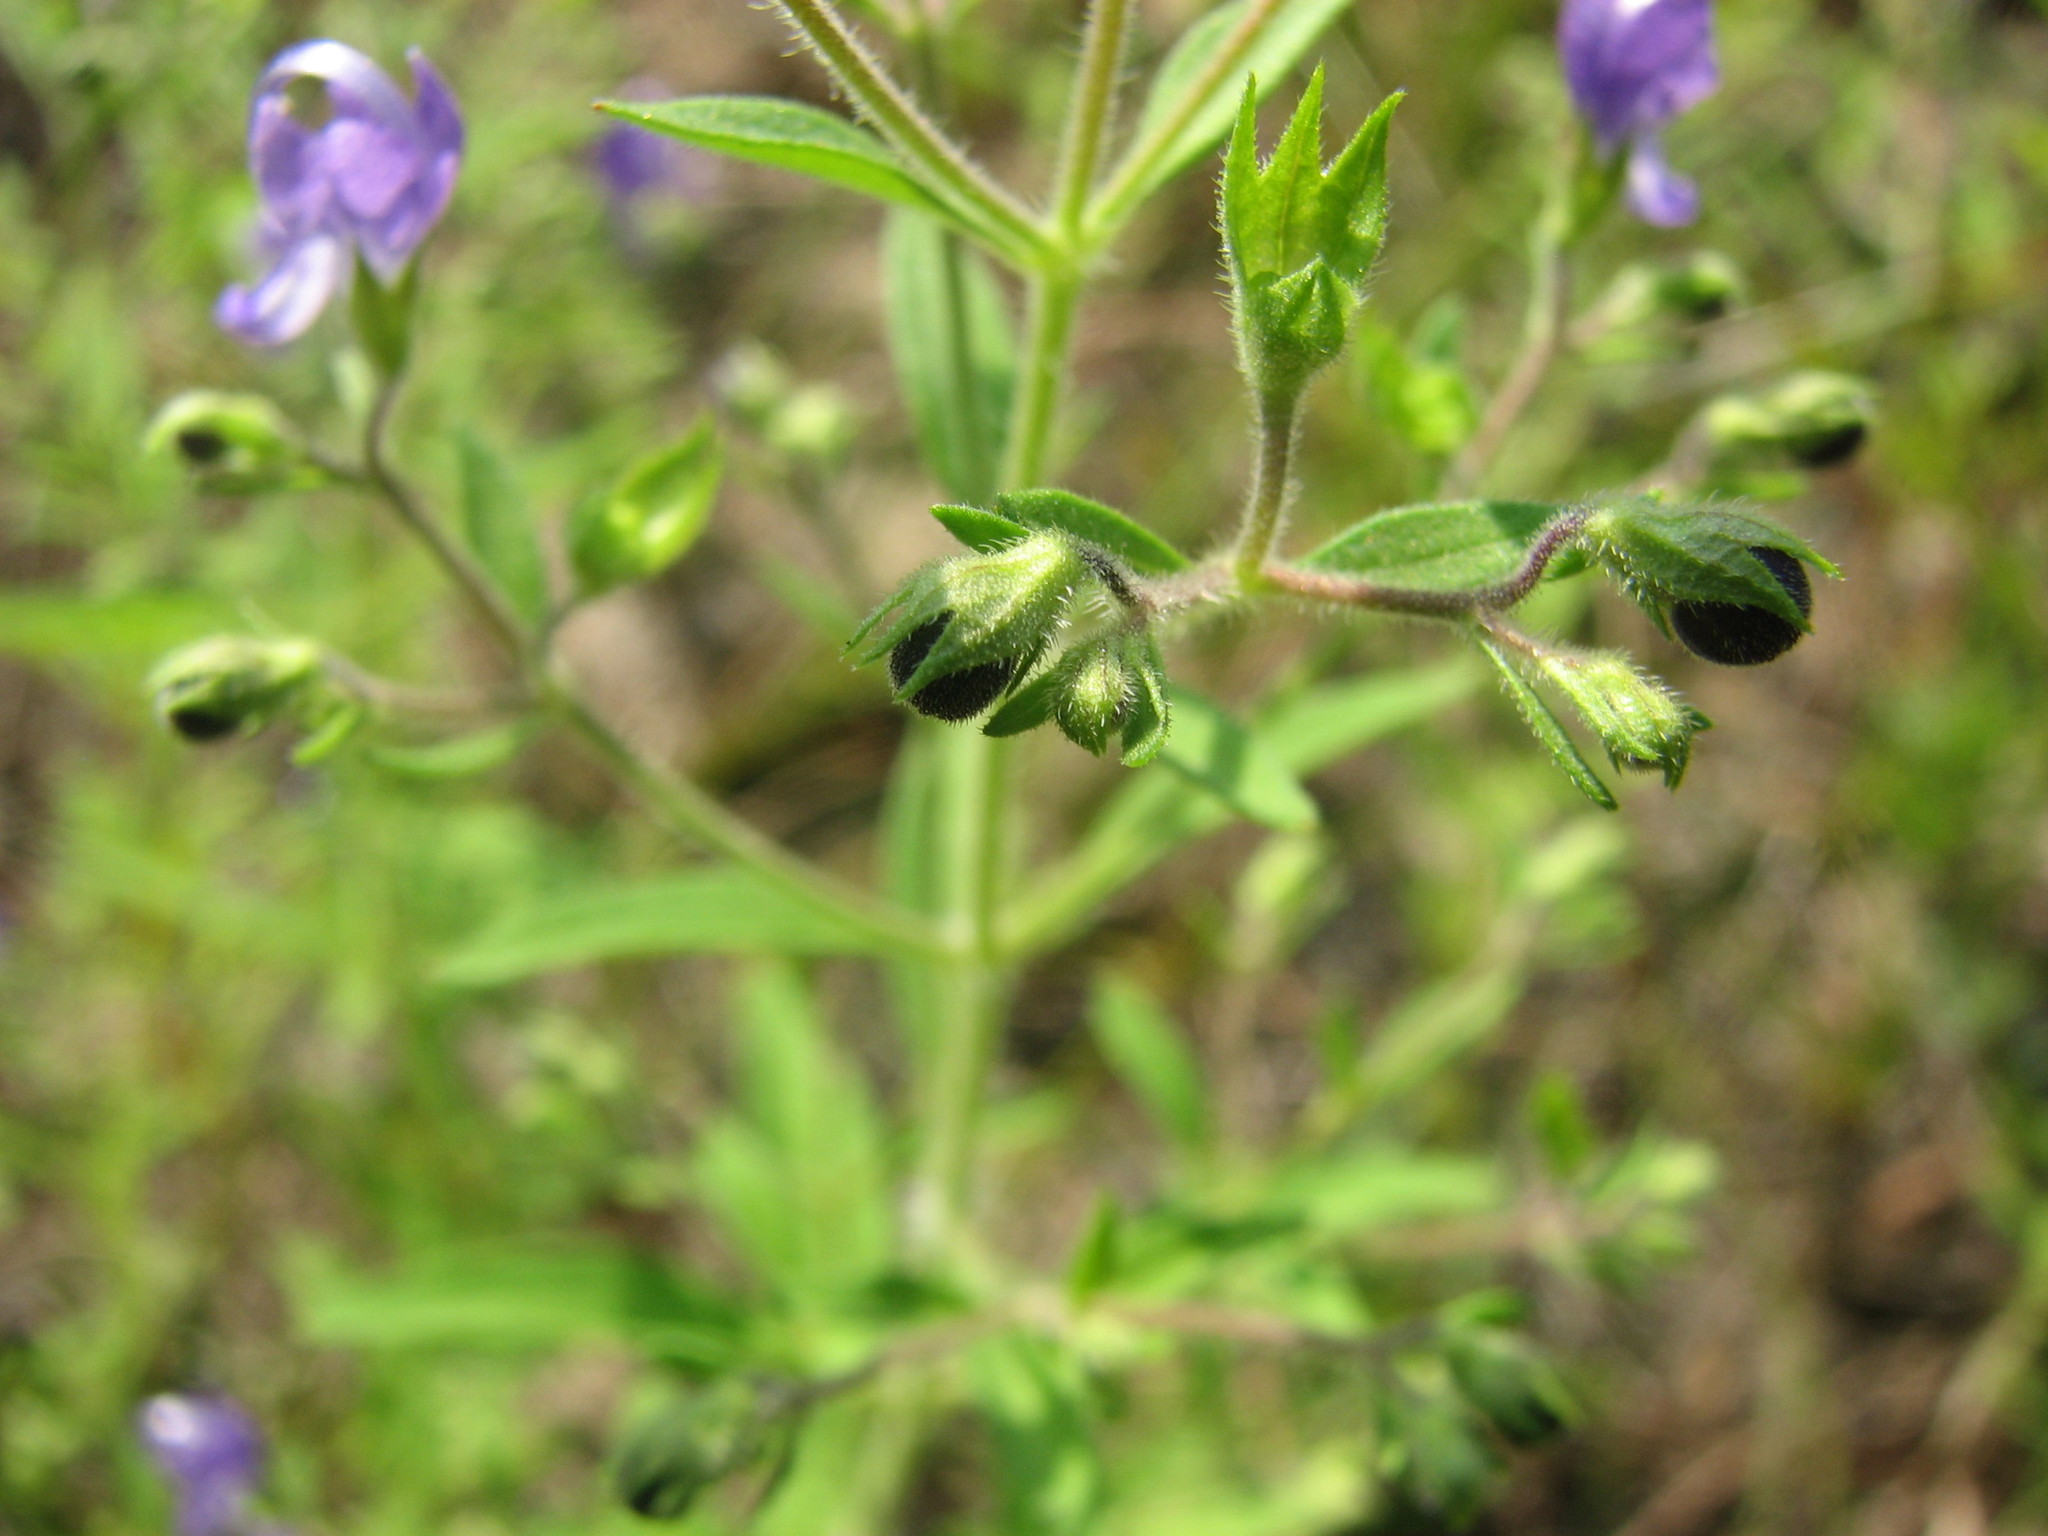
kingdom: Plantae
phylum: Tracheophyta
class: Magnoliopsida
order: Lamiales
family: Lamiaceae
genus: Trichostema
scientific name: Trichostema dichotomum
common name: Bastard pennyroyal
